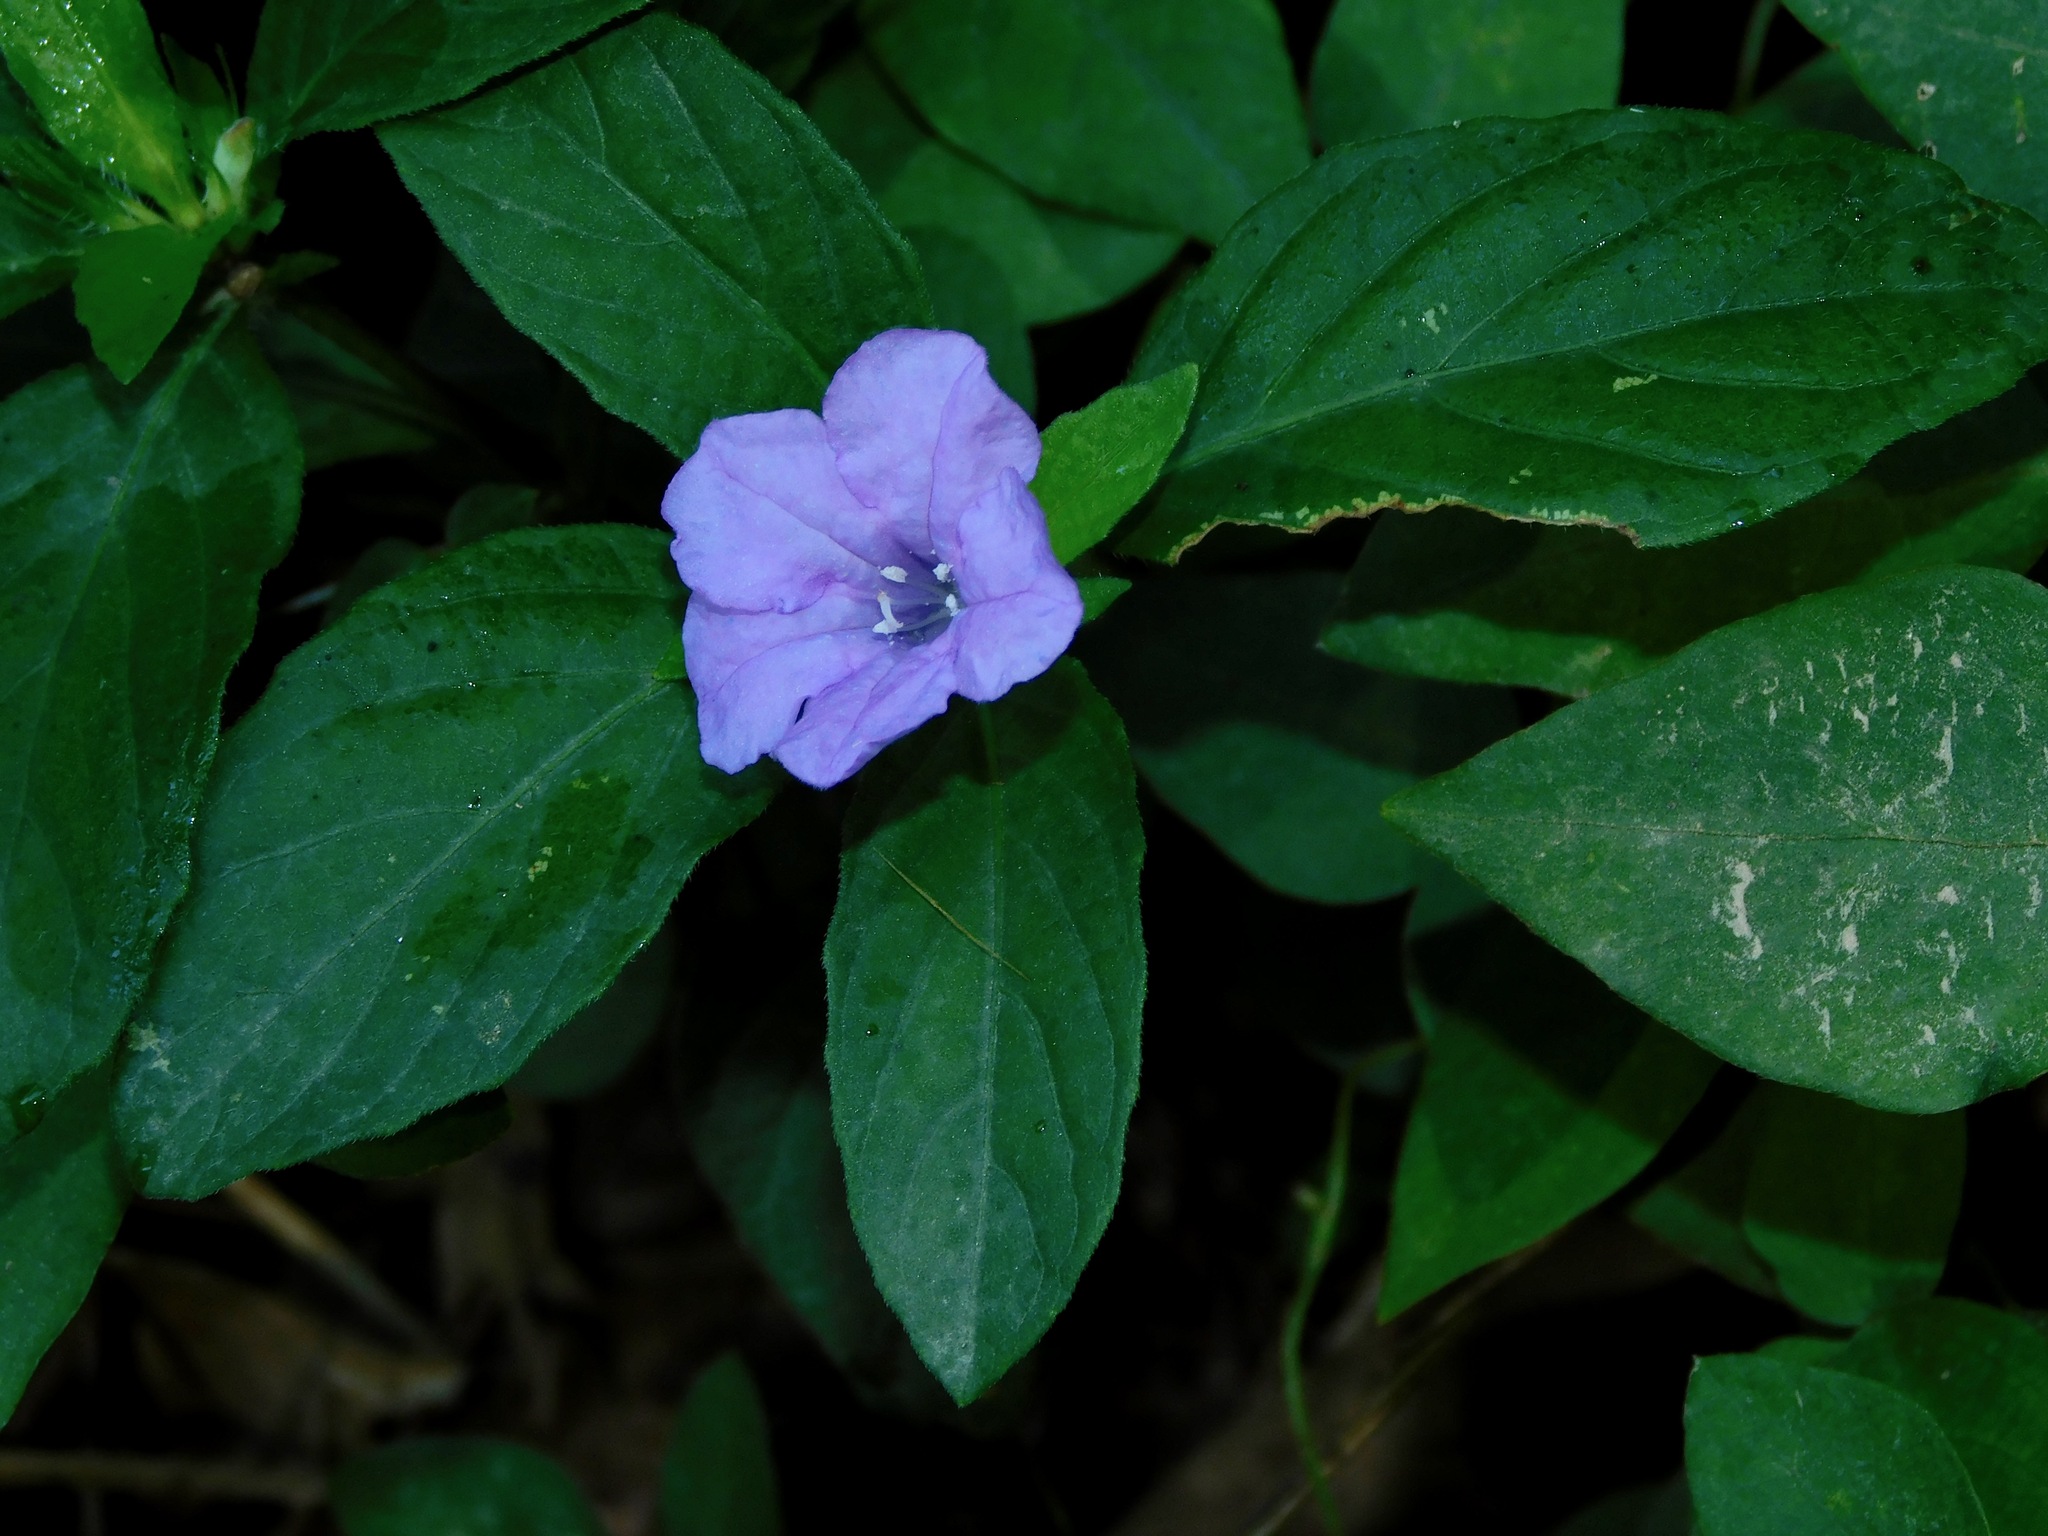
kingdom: Plantae
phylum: Tracheophyta
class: Magnoliopsida
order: Lamiales
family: Acanthaceae
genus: Ruellia
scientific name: Ruellia caroliniensis
